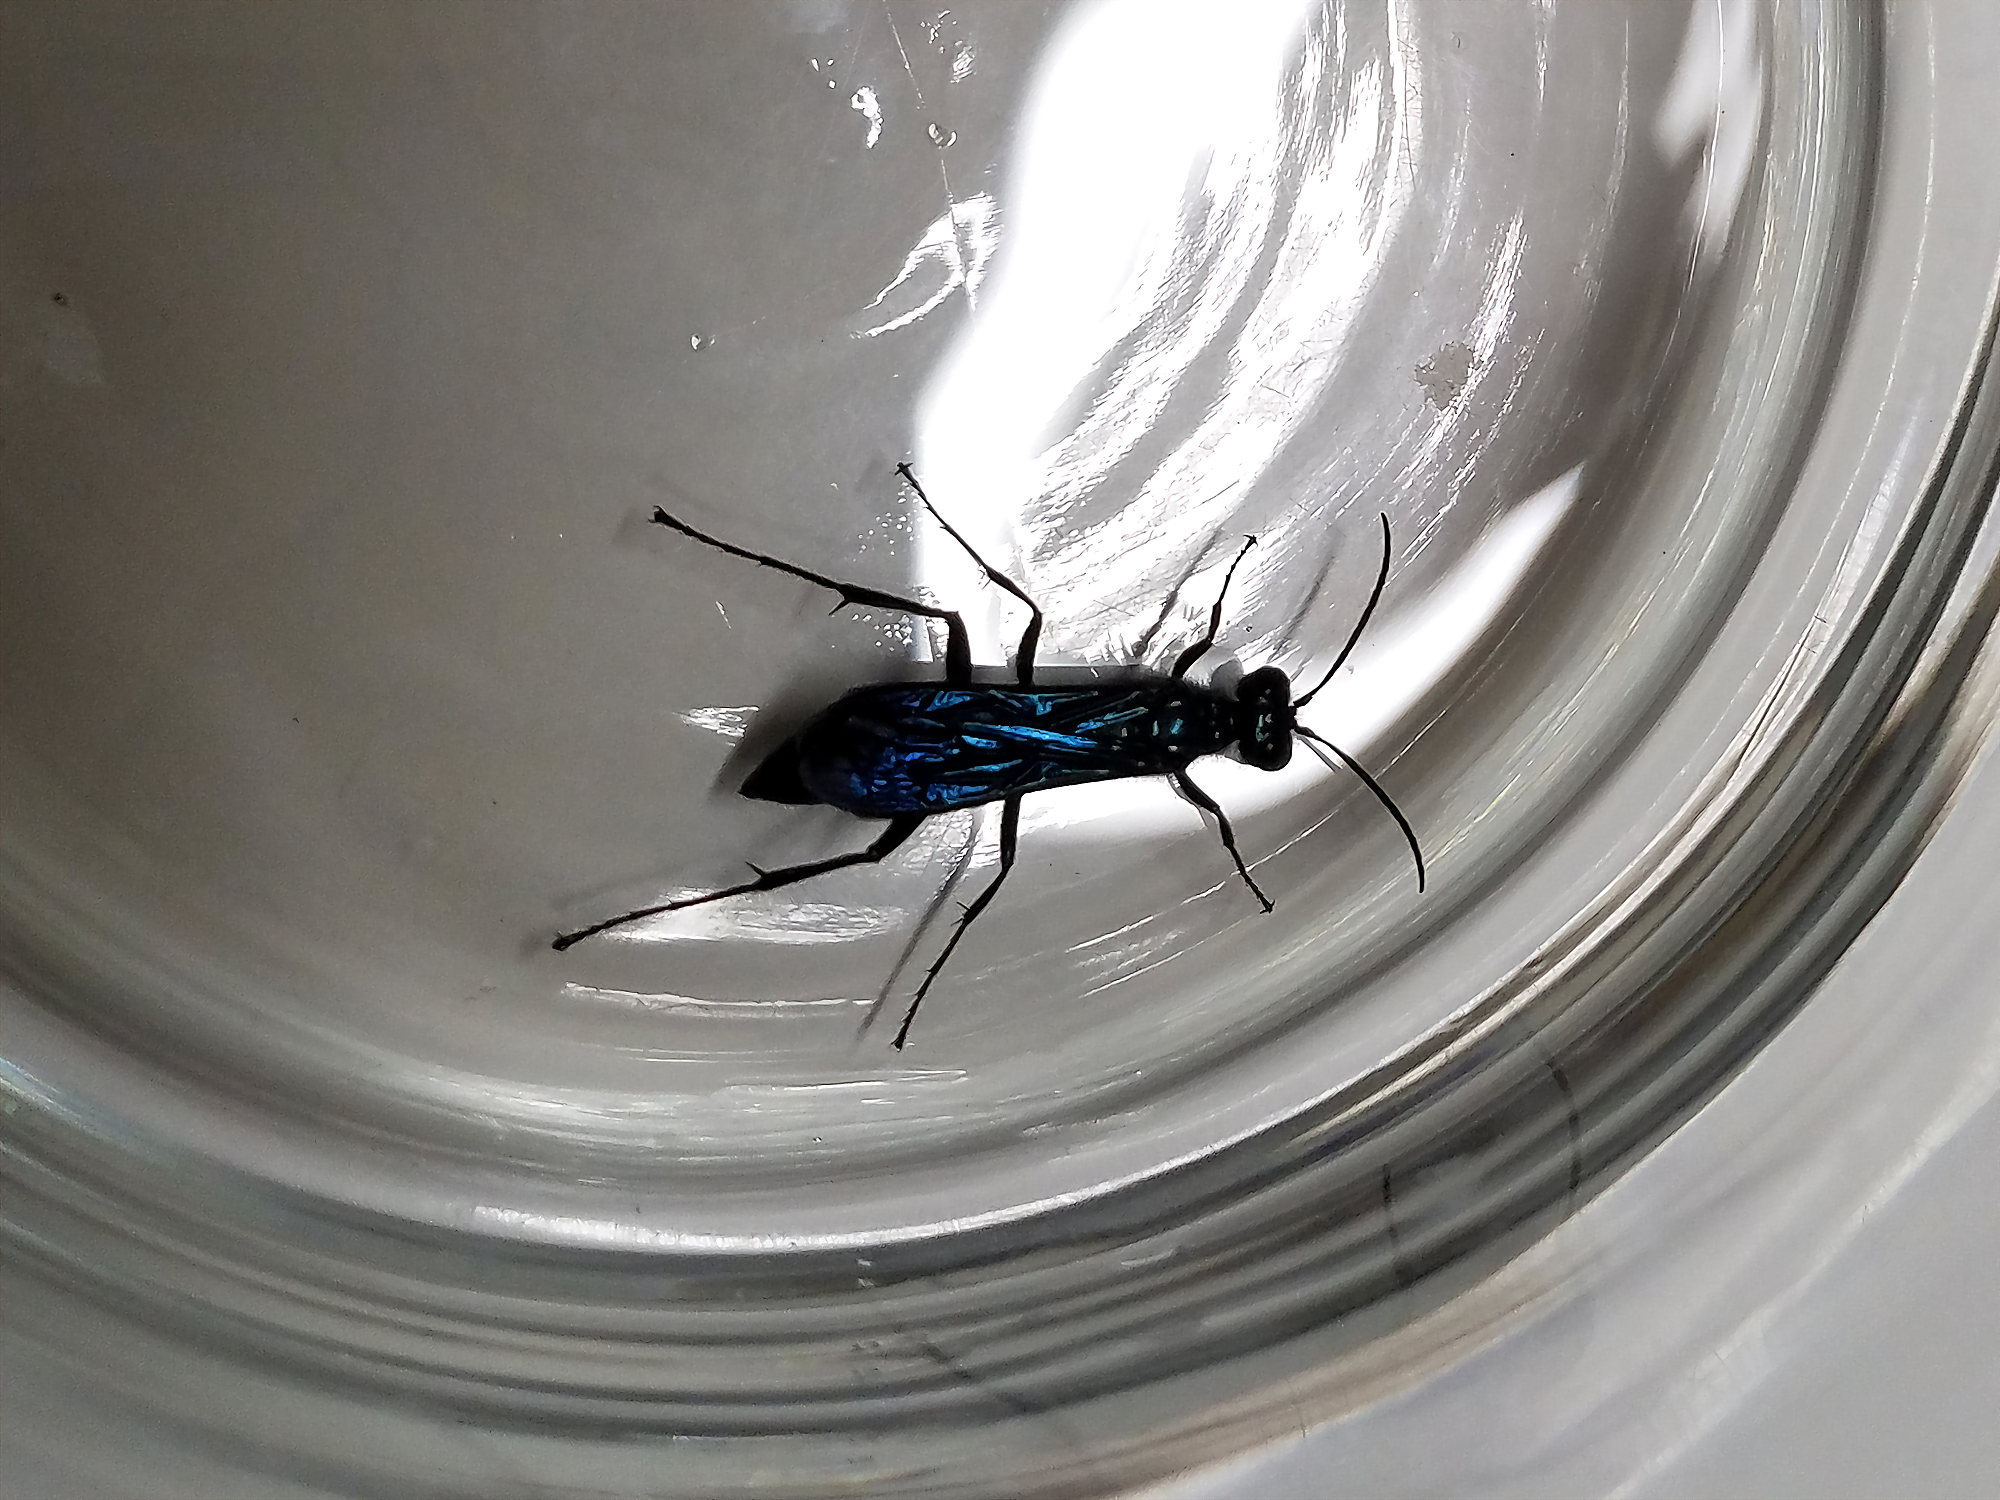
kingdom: Animalia
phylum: Arthropoda
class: Insecta
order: Hymenoptera
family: Sphecidae
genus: Chalybion
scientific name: Chalybion californicum
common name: Mud dauber
